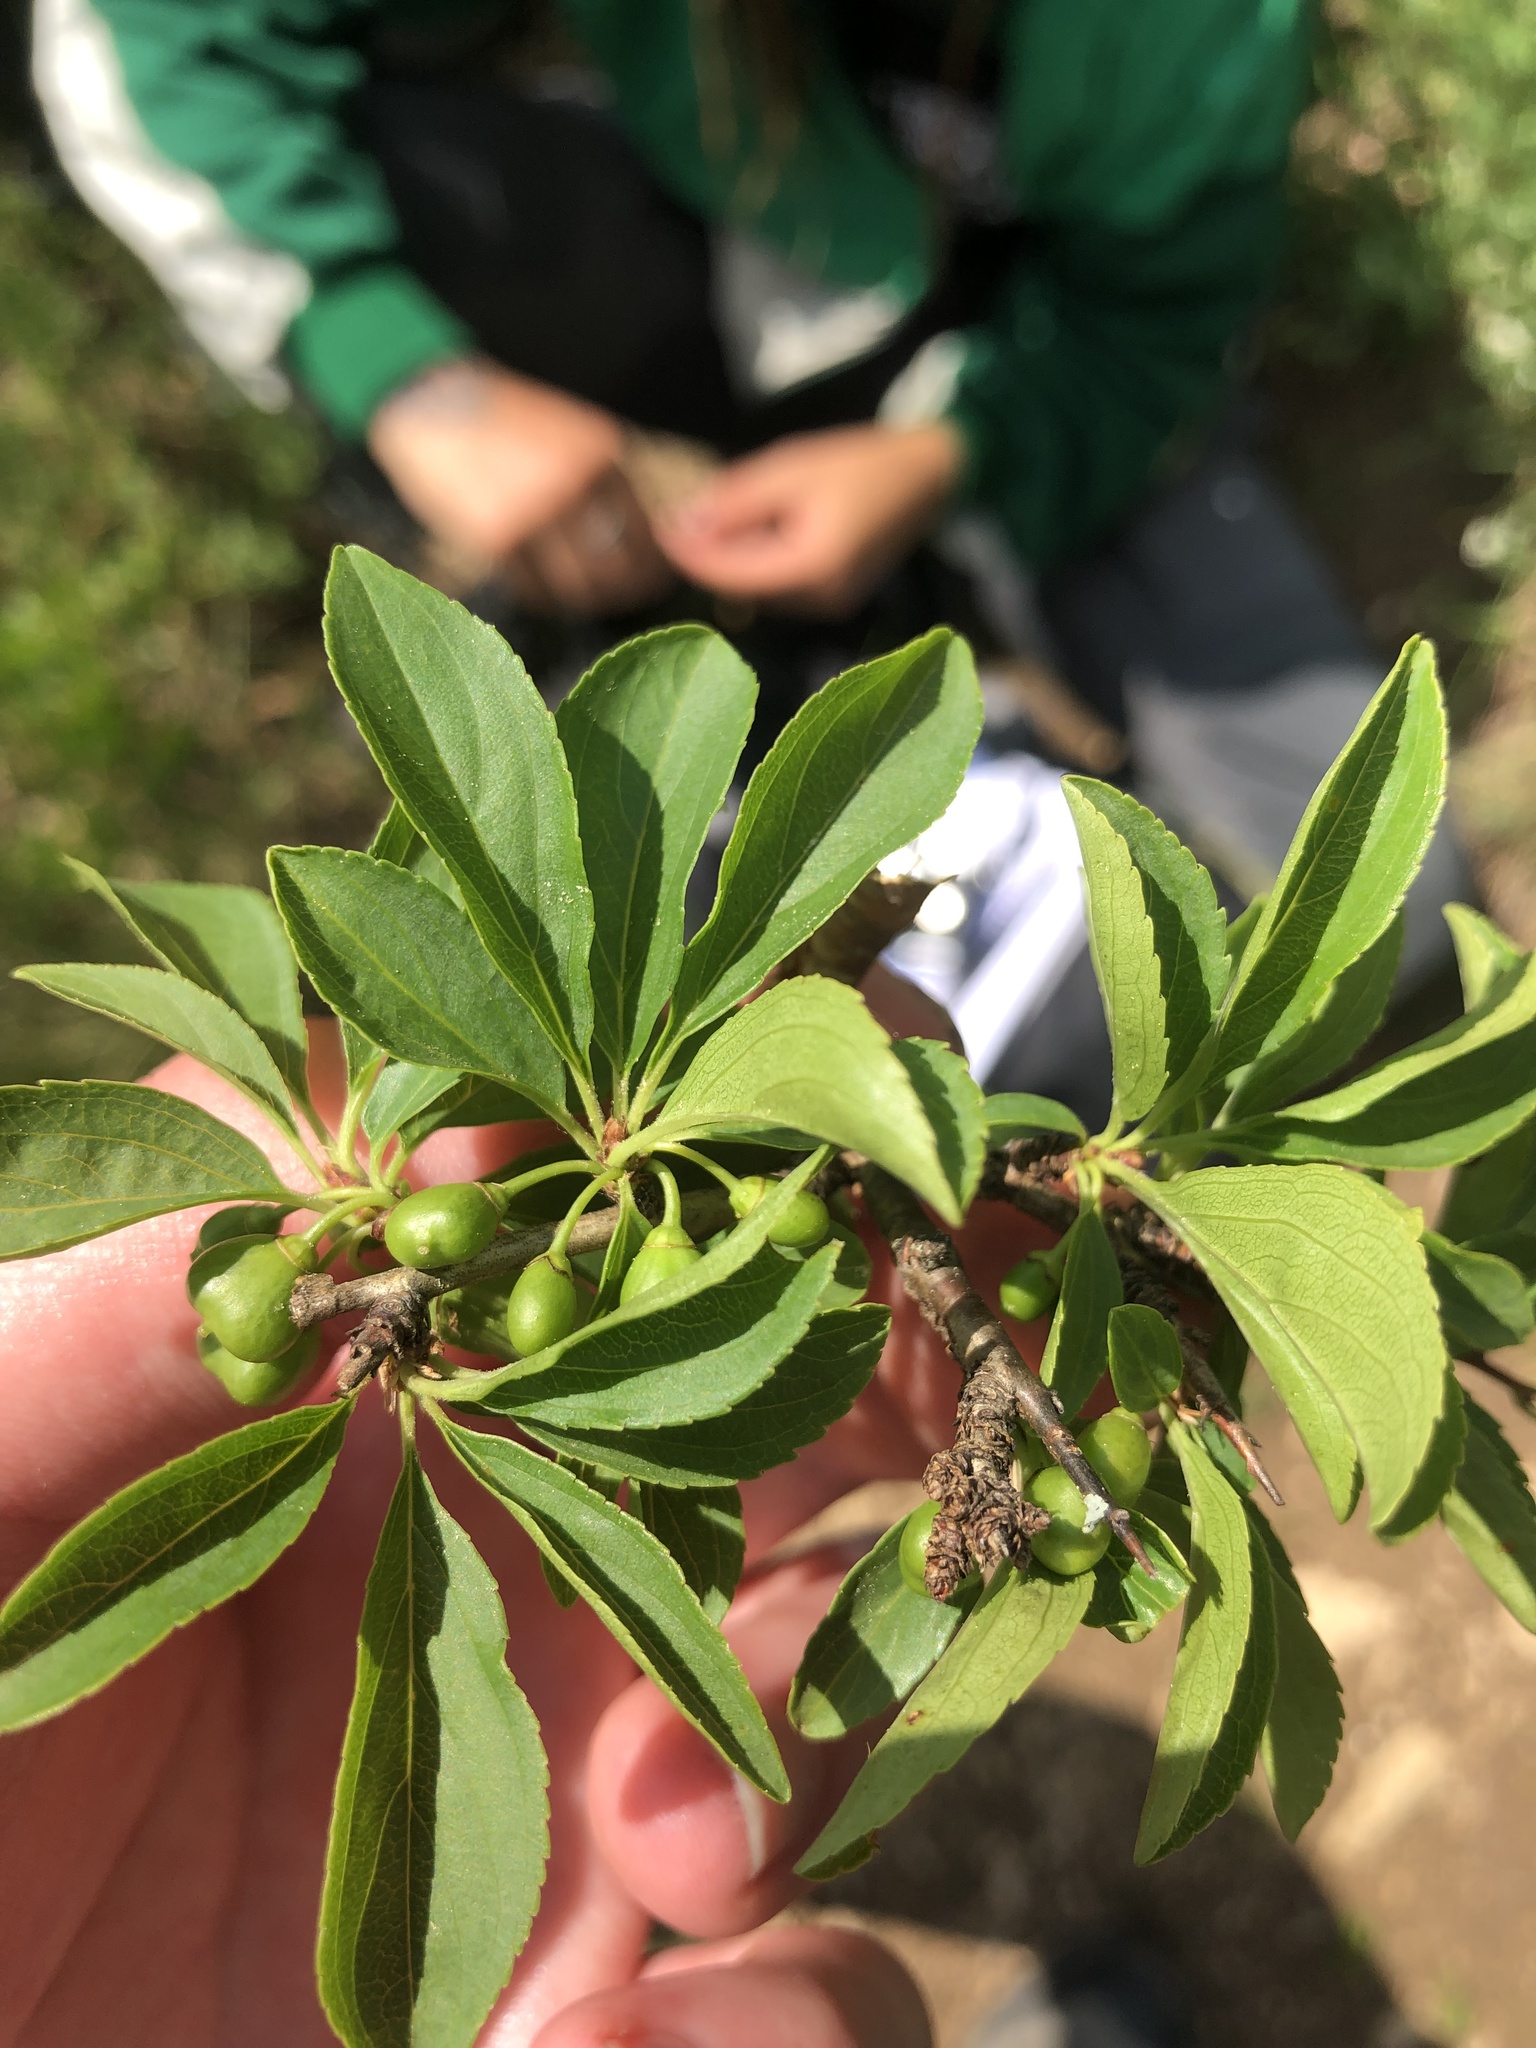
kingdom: Plantae
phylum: Tracheophyta
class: Magnoliopsida
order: Rosales
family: Rhamnaceae
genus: Rhamnus
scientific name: Rhamnus saxatilis
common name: Rock buckthorn
